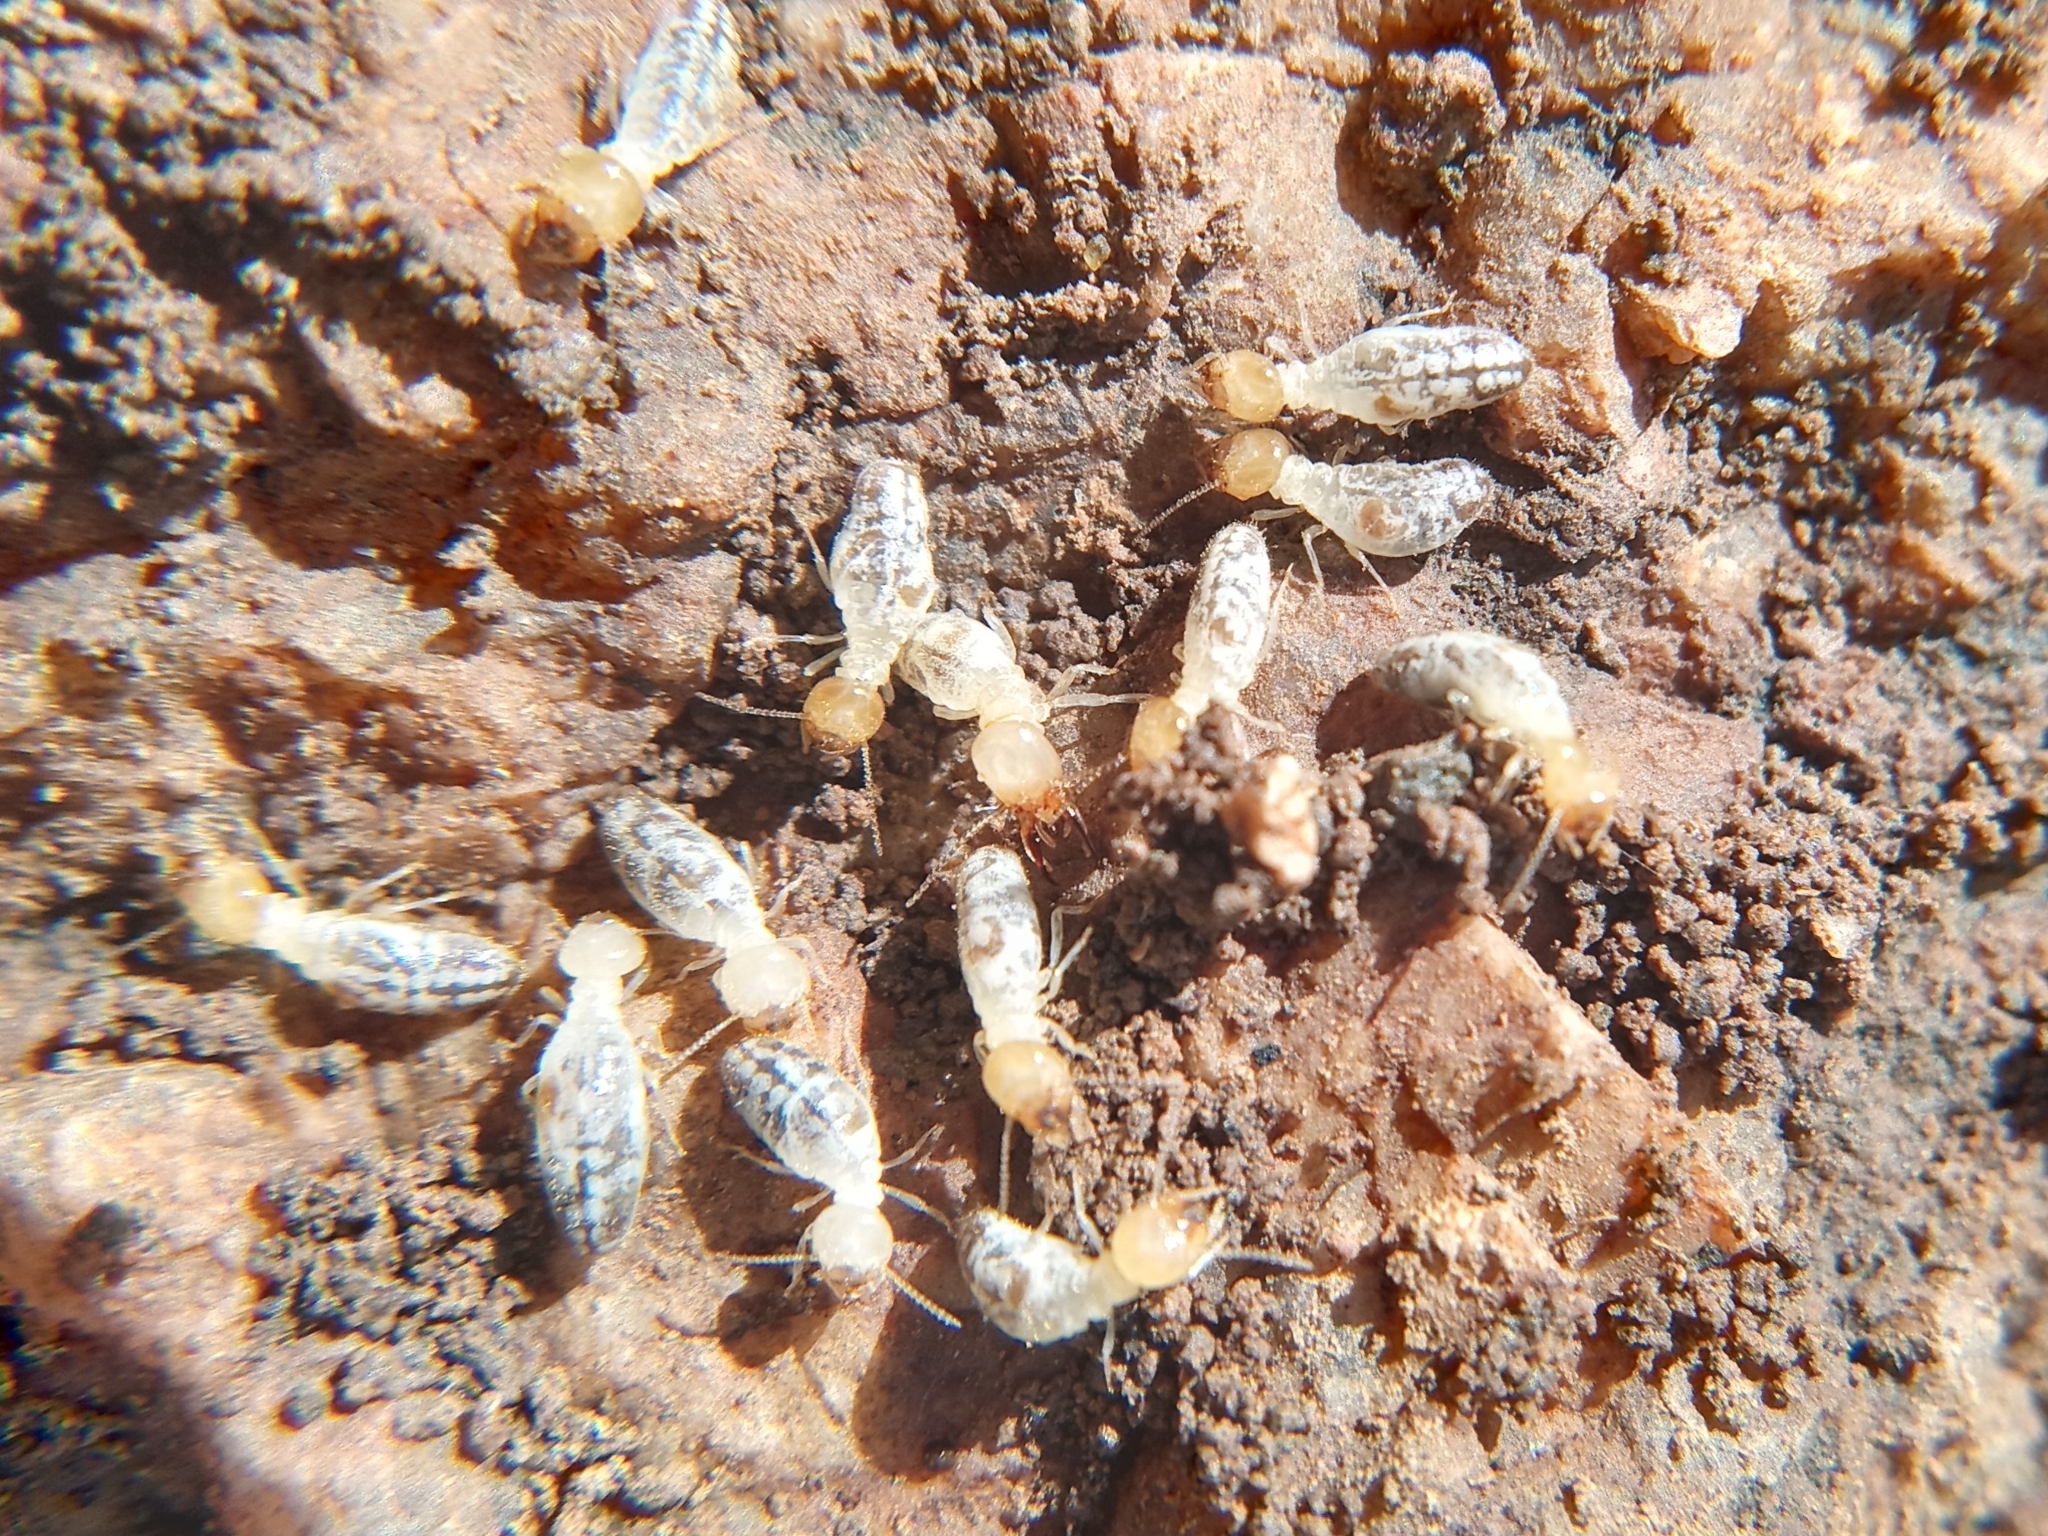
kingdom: Animalia
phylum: Arthropoda
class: Insecta
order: Blattodea
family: Termitidae
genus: Gnathamitermes
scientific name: Gnathamitermes
